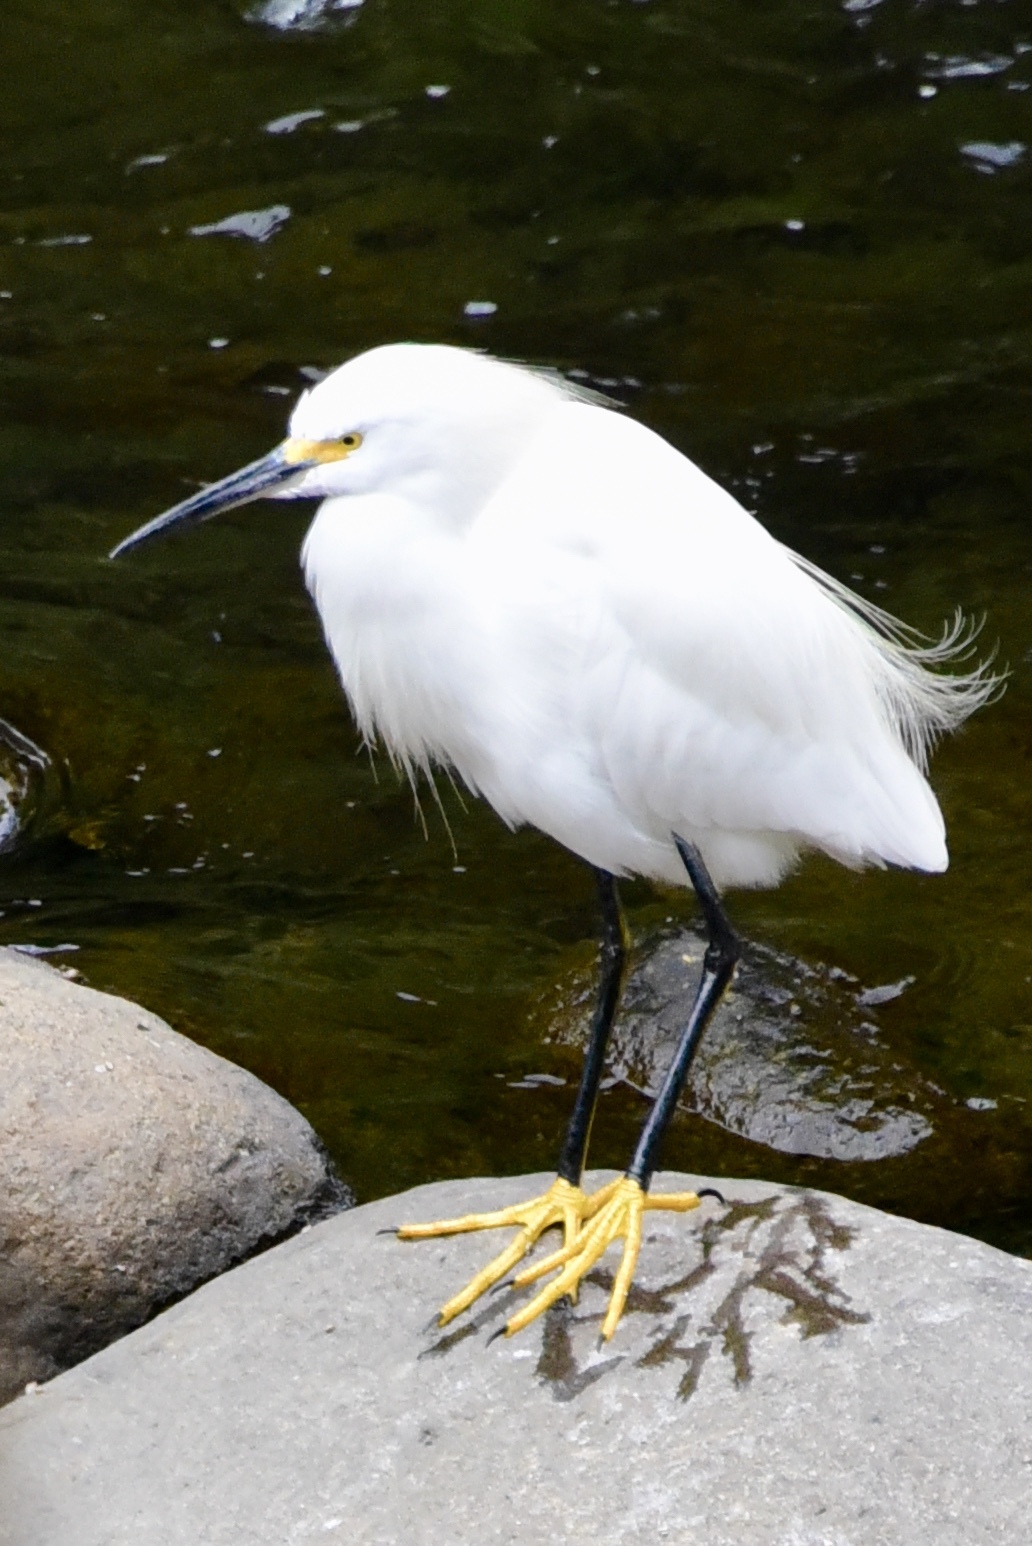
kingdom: Animalia
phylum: Chordata
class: Aves
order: Pelecaniformes
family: Ardeidae
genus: Egretta
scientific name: Egretta thula
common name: Snowy egret
